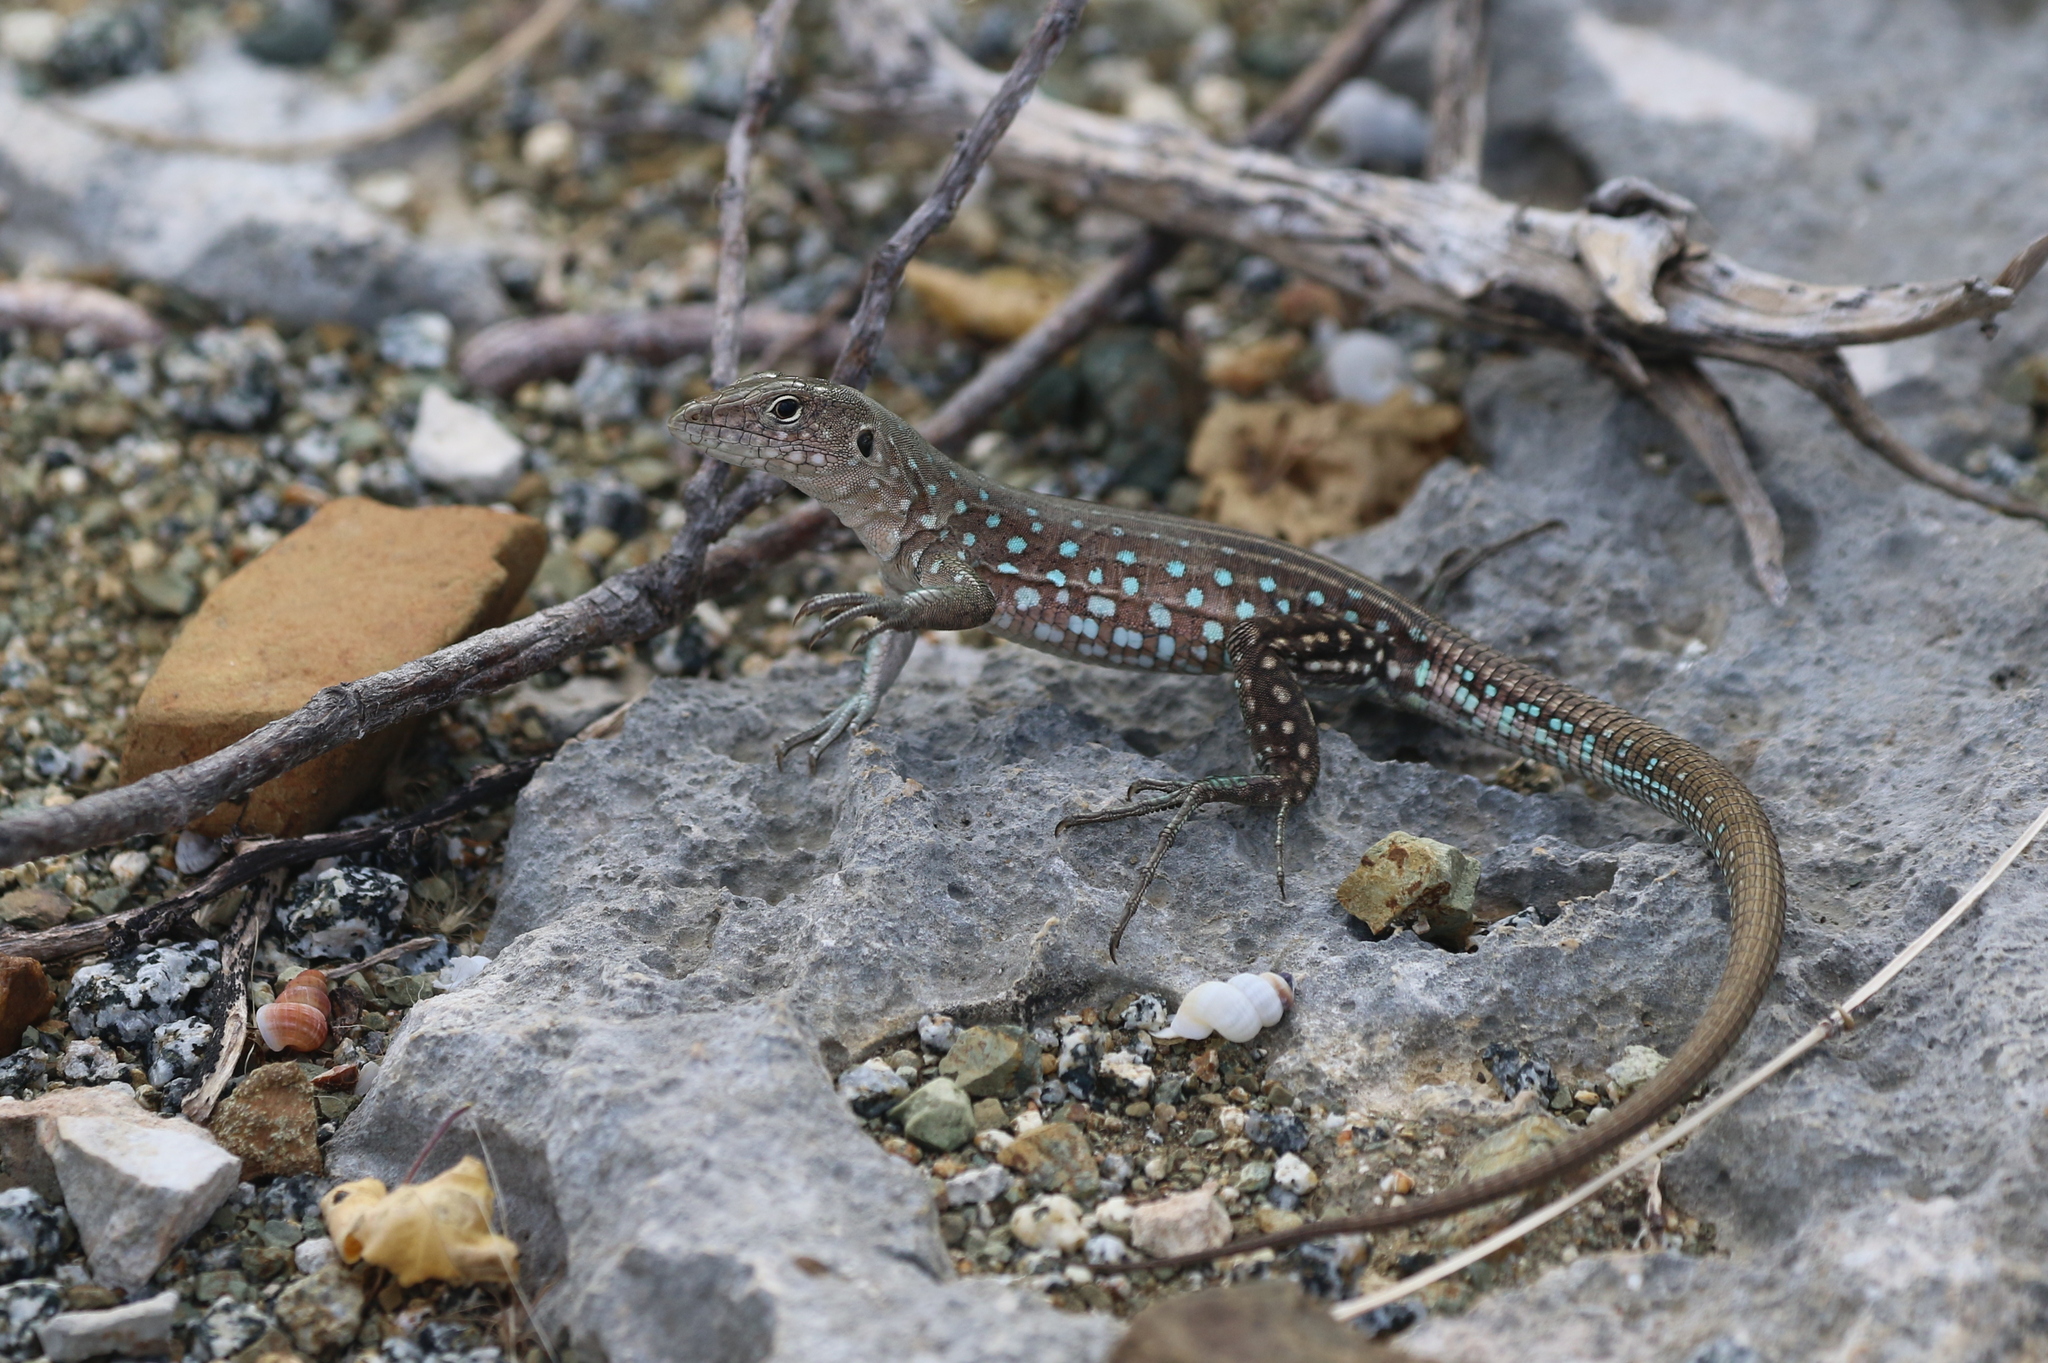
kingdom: Animalia
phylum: Chordata
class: Squamata
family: Teiidae
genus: Cnemidophorus
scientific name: Cnemidophorus arubensis
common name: Aruba whiptail
